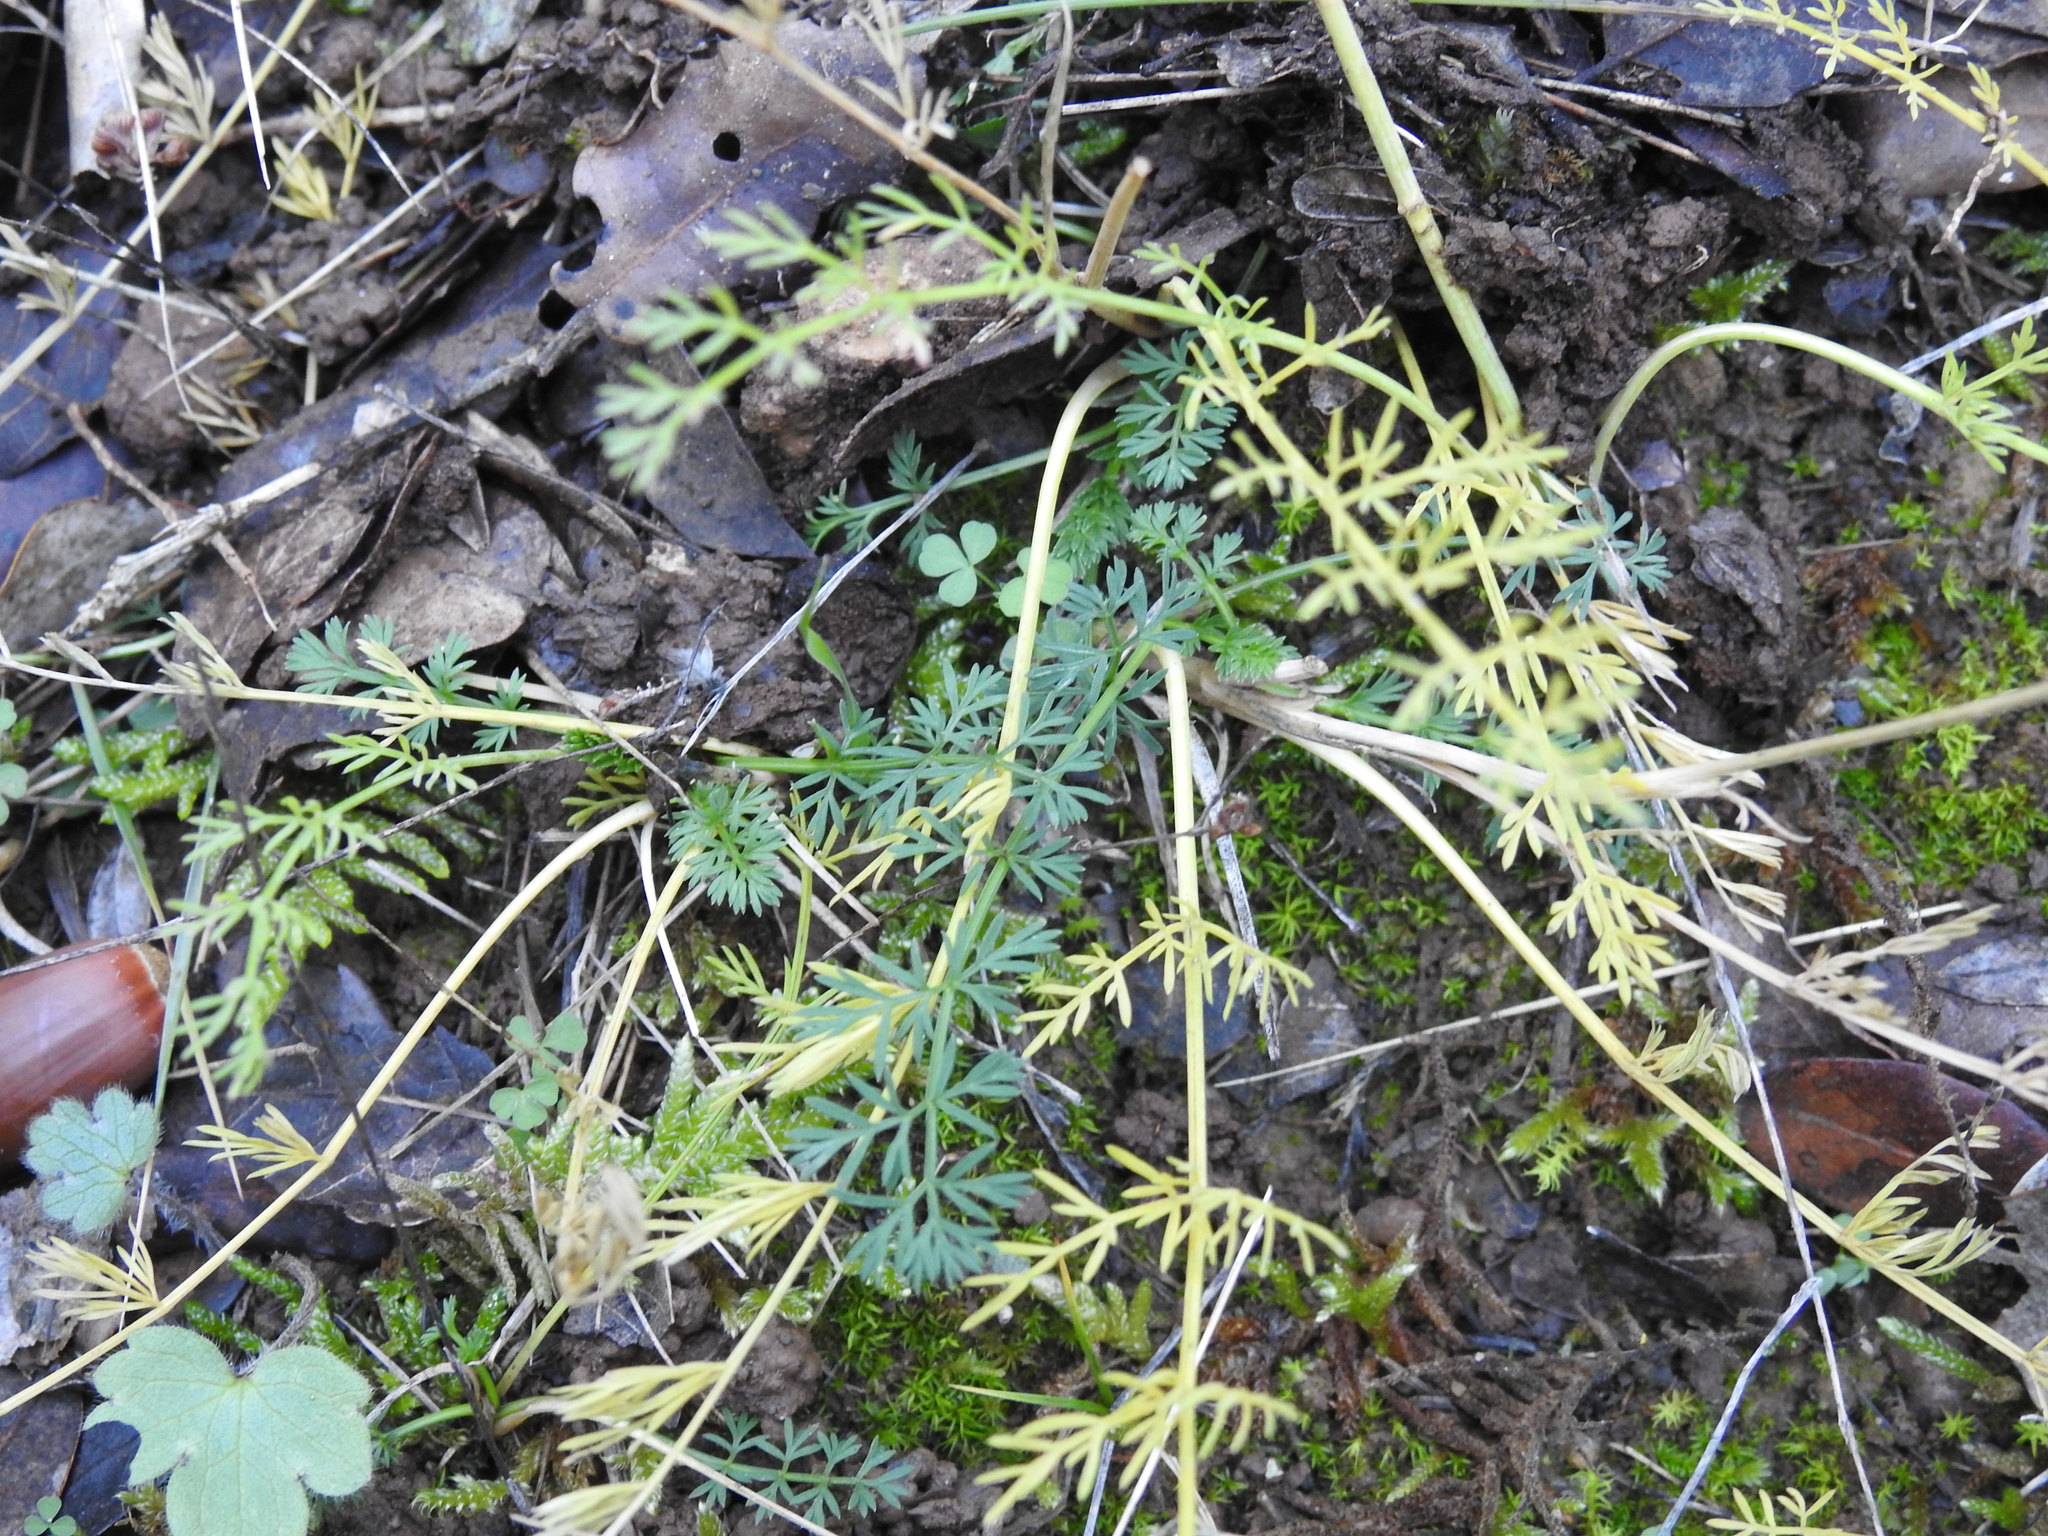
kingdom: Plantae
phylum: Tracheophyta
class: Magnoliopsida
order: Apiales
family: Apiaceae
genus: Seseli
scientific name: Seseli montanum
